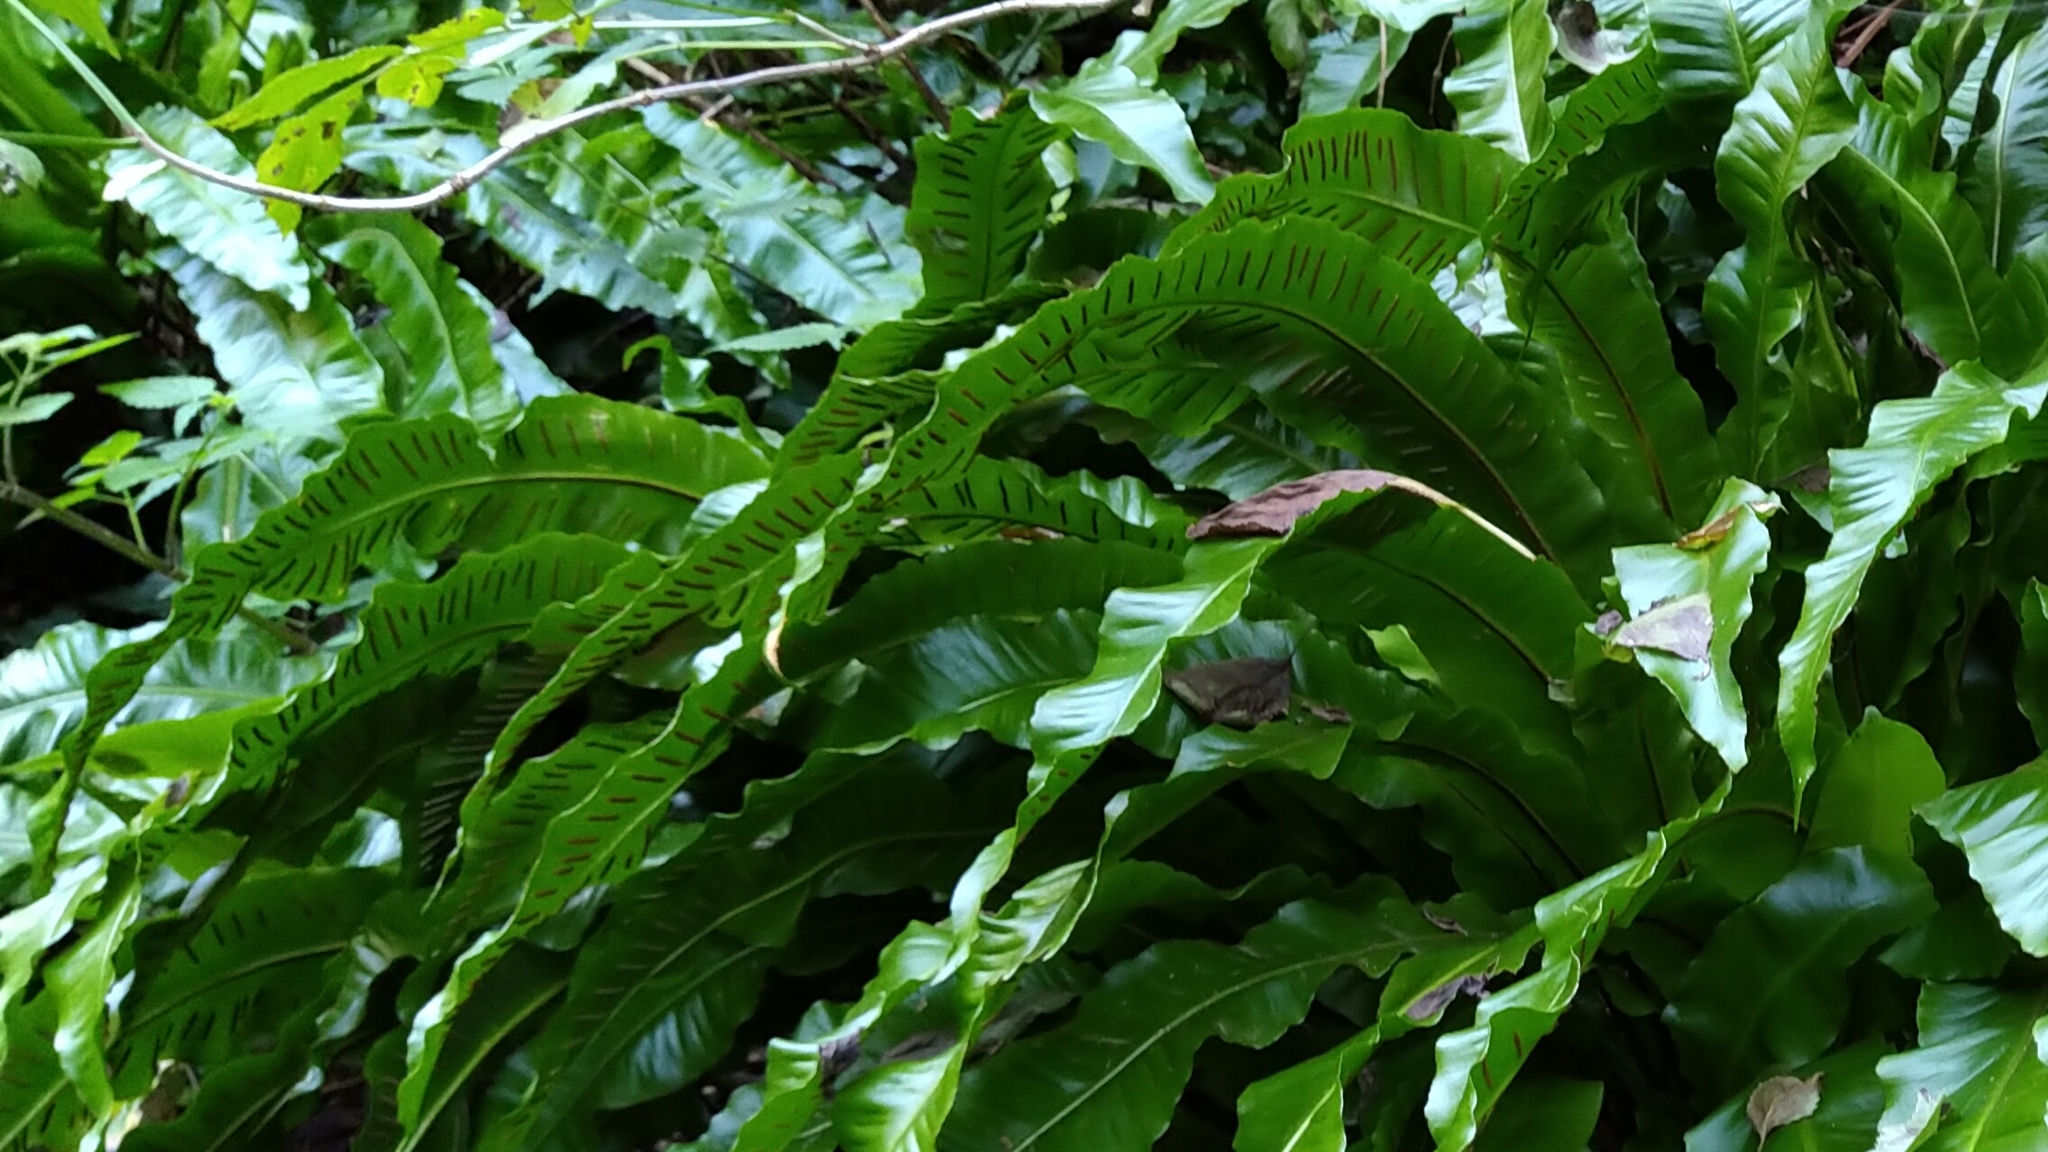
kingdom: Plantae
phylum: Tracheophyta
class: Polypodiopsida
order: Polypodiales
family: Aspleniaceae
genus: Asplenium
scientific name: Asplenium scolopendrium
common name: Hart's-tongue fern
